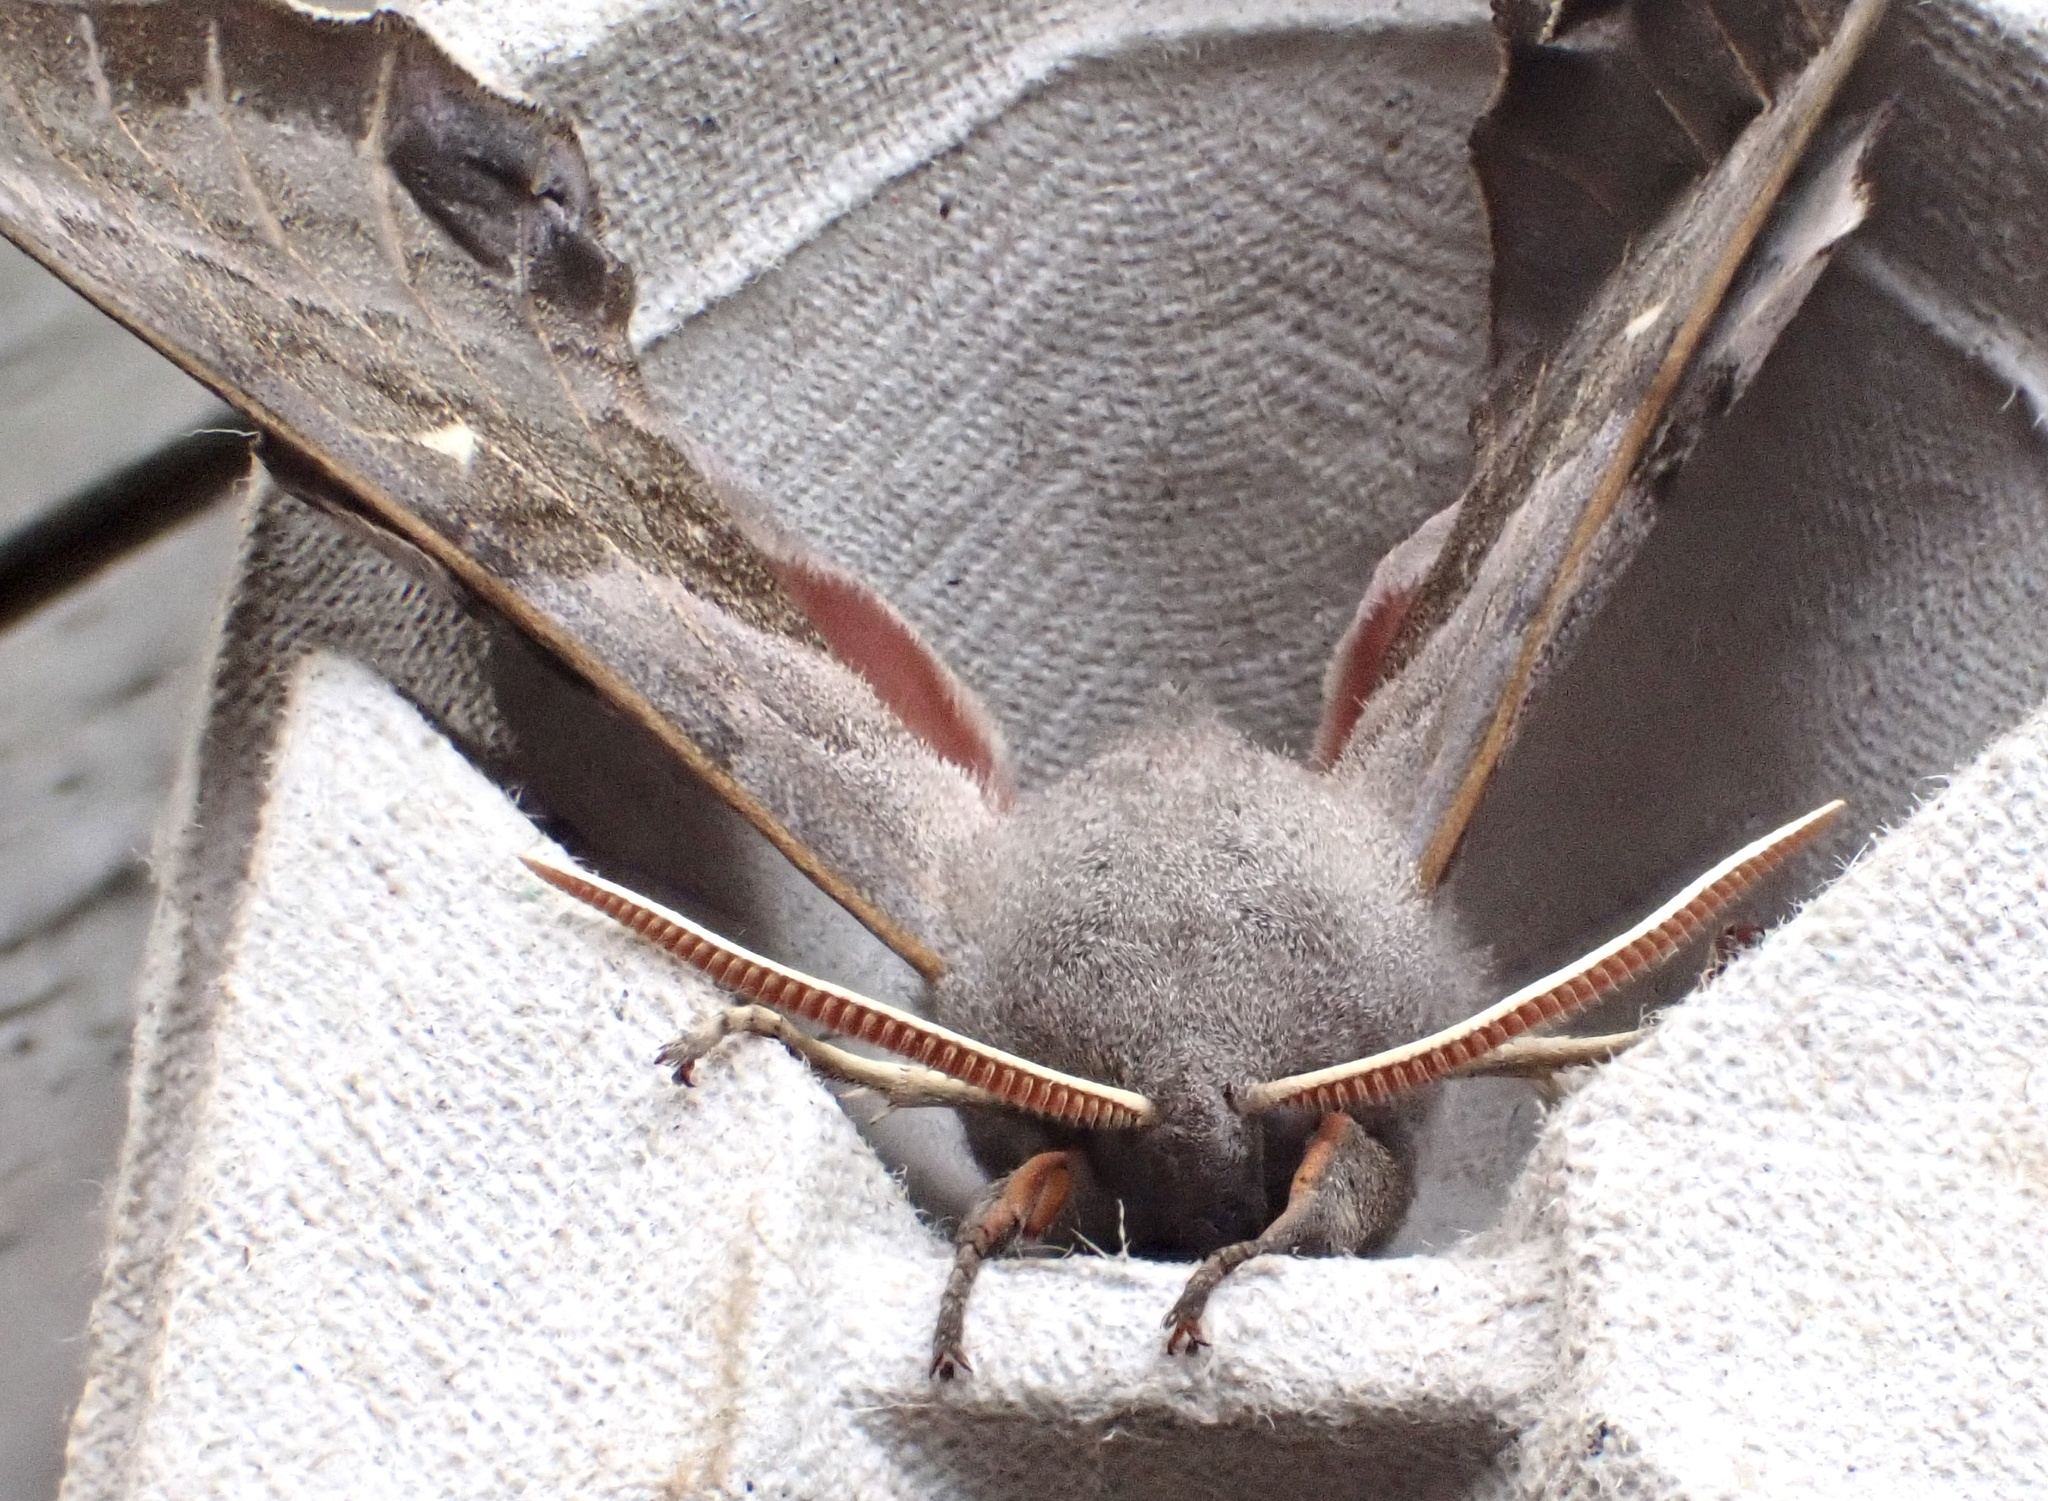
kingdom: Animalia
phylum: Arthropoda
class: Insecta
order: Lepidoptera
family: Sphingidae
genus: Laothoe
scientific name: Laothoe populi
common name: Poplar hawk-moth
